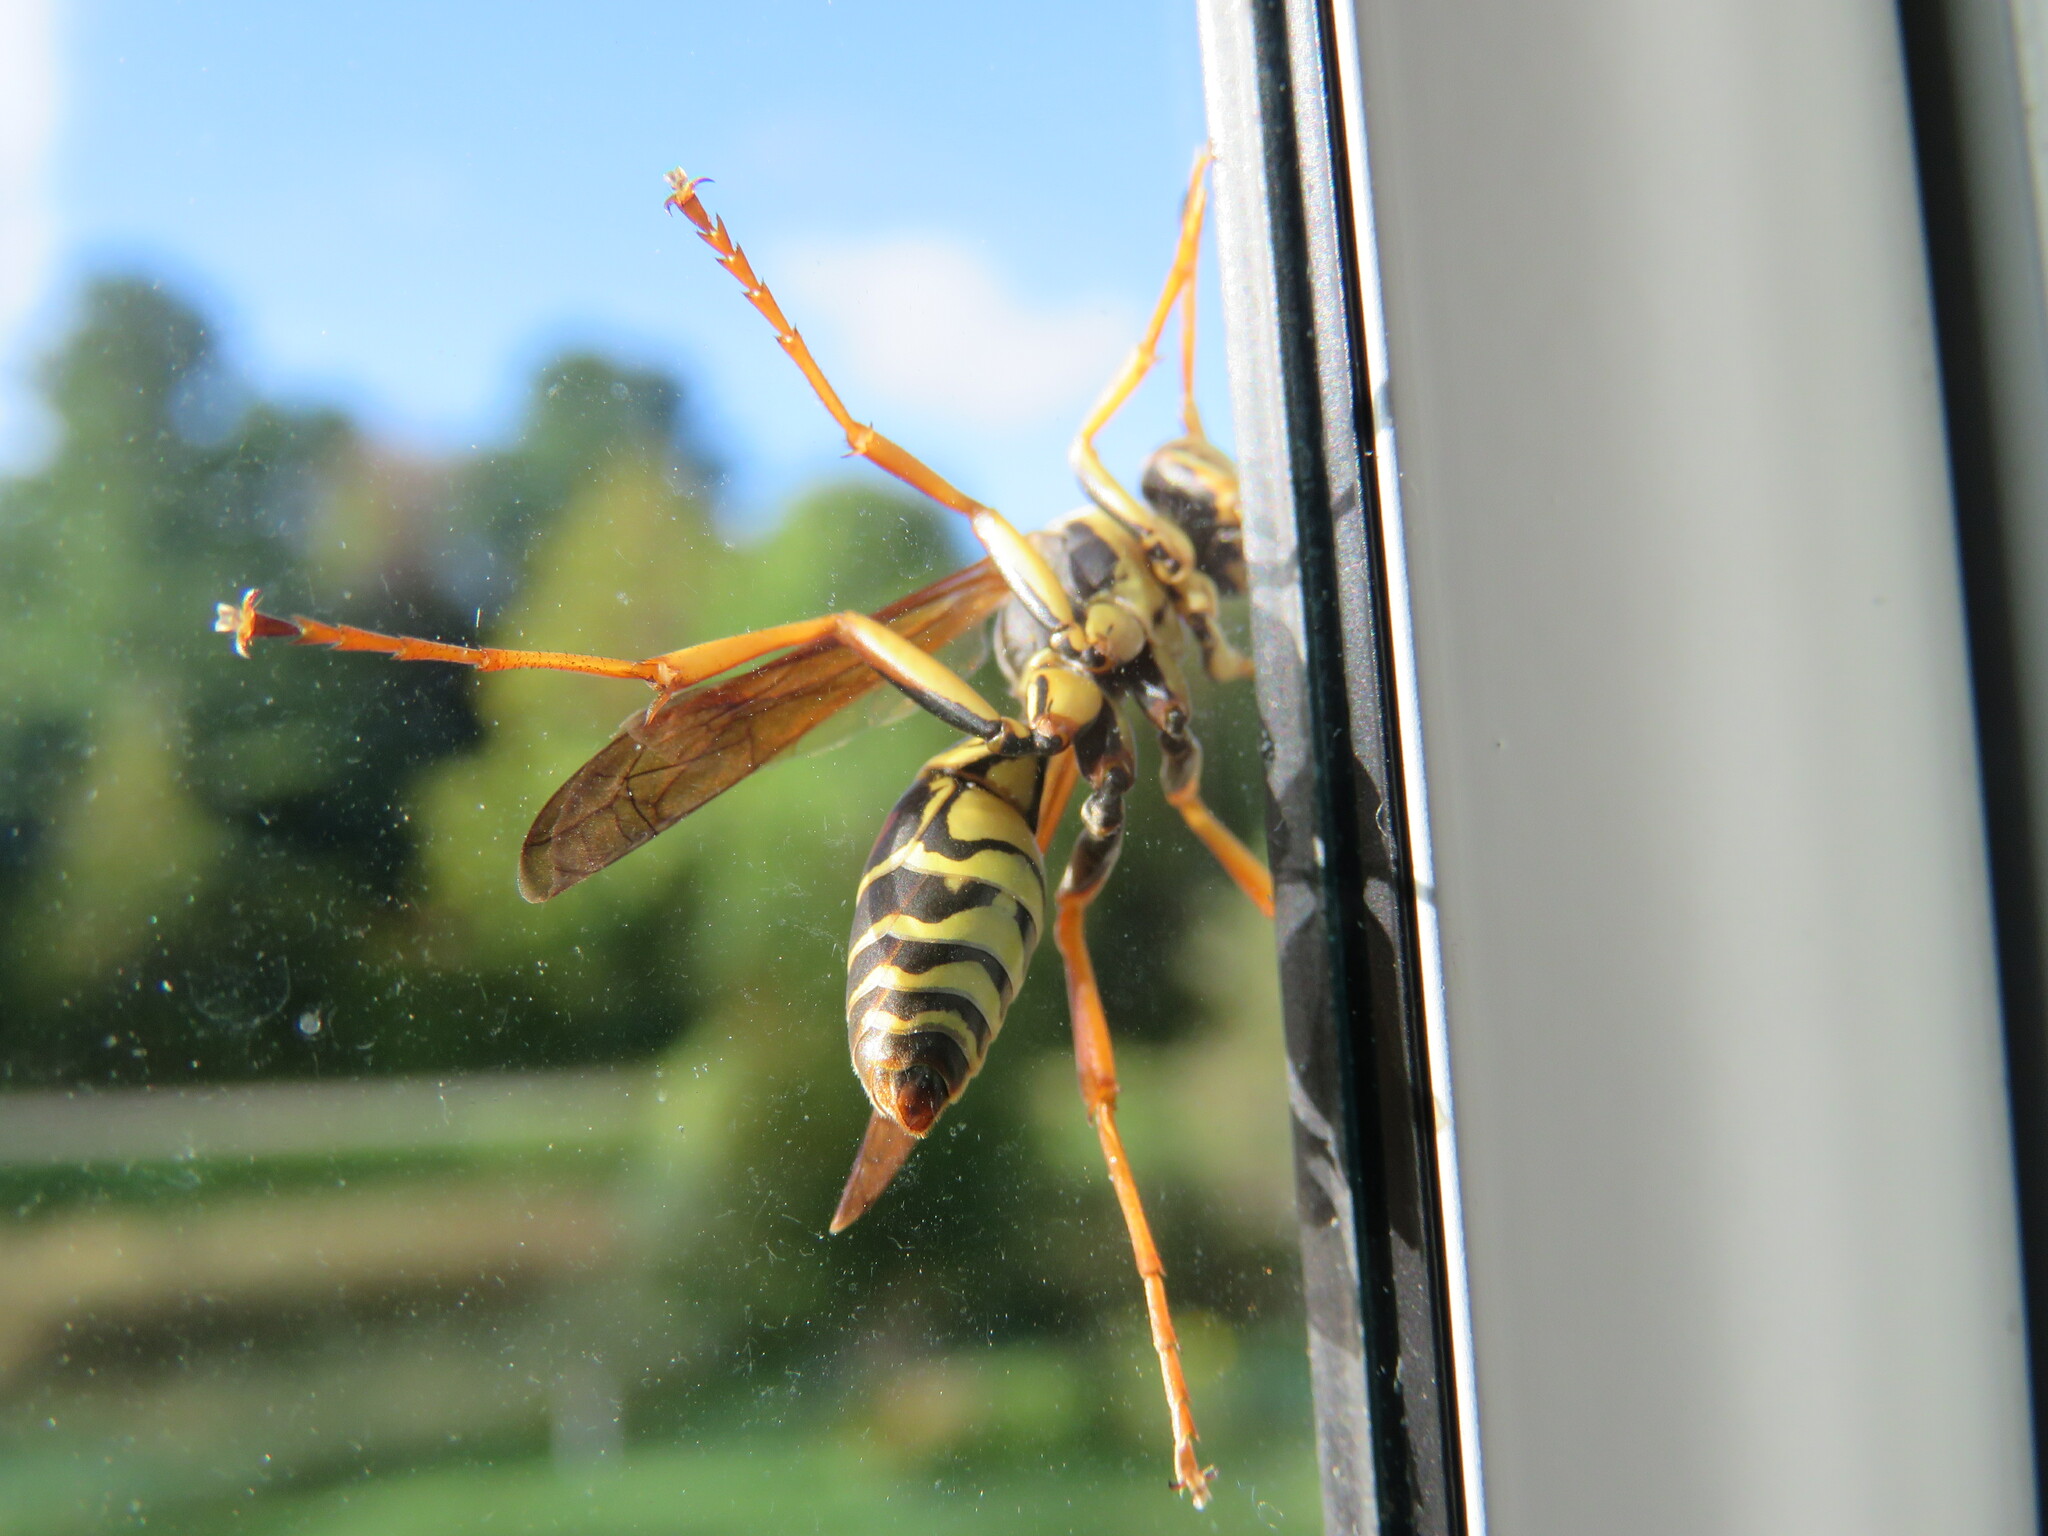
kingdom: Animalia
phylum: Arthropoda
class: Insecta
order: Hymenoptera
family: Eumenidae
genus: Polistes
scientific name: Polistes fuscatus
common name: Dark paper wasp
